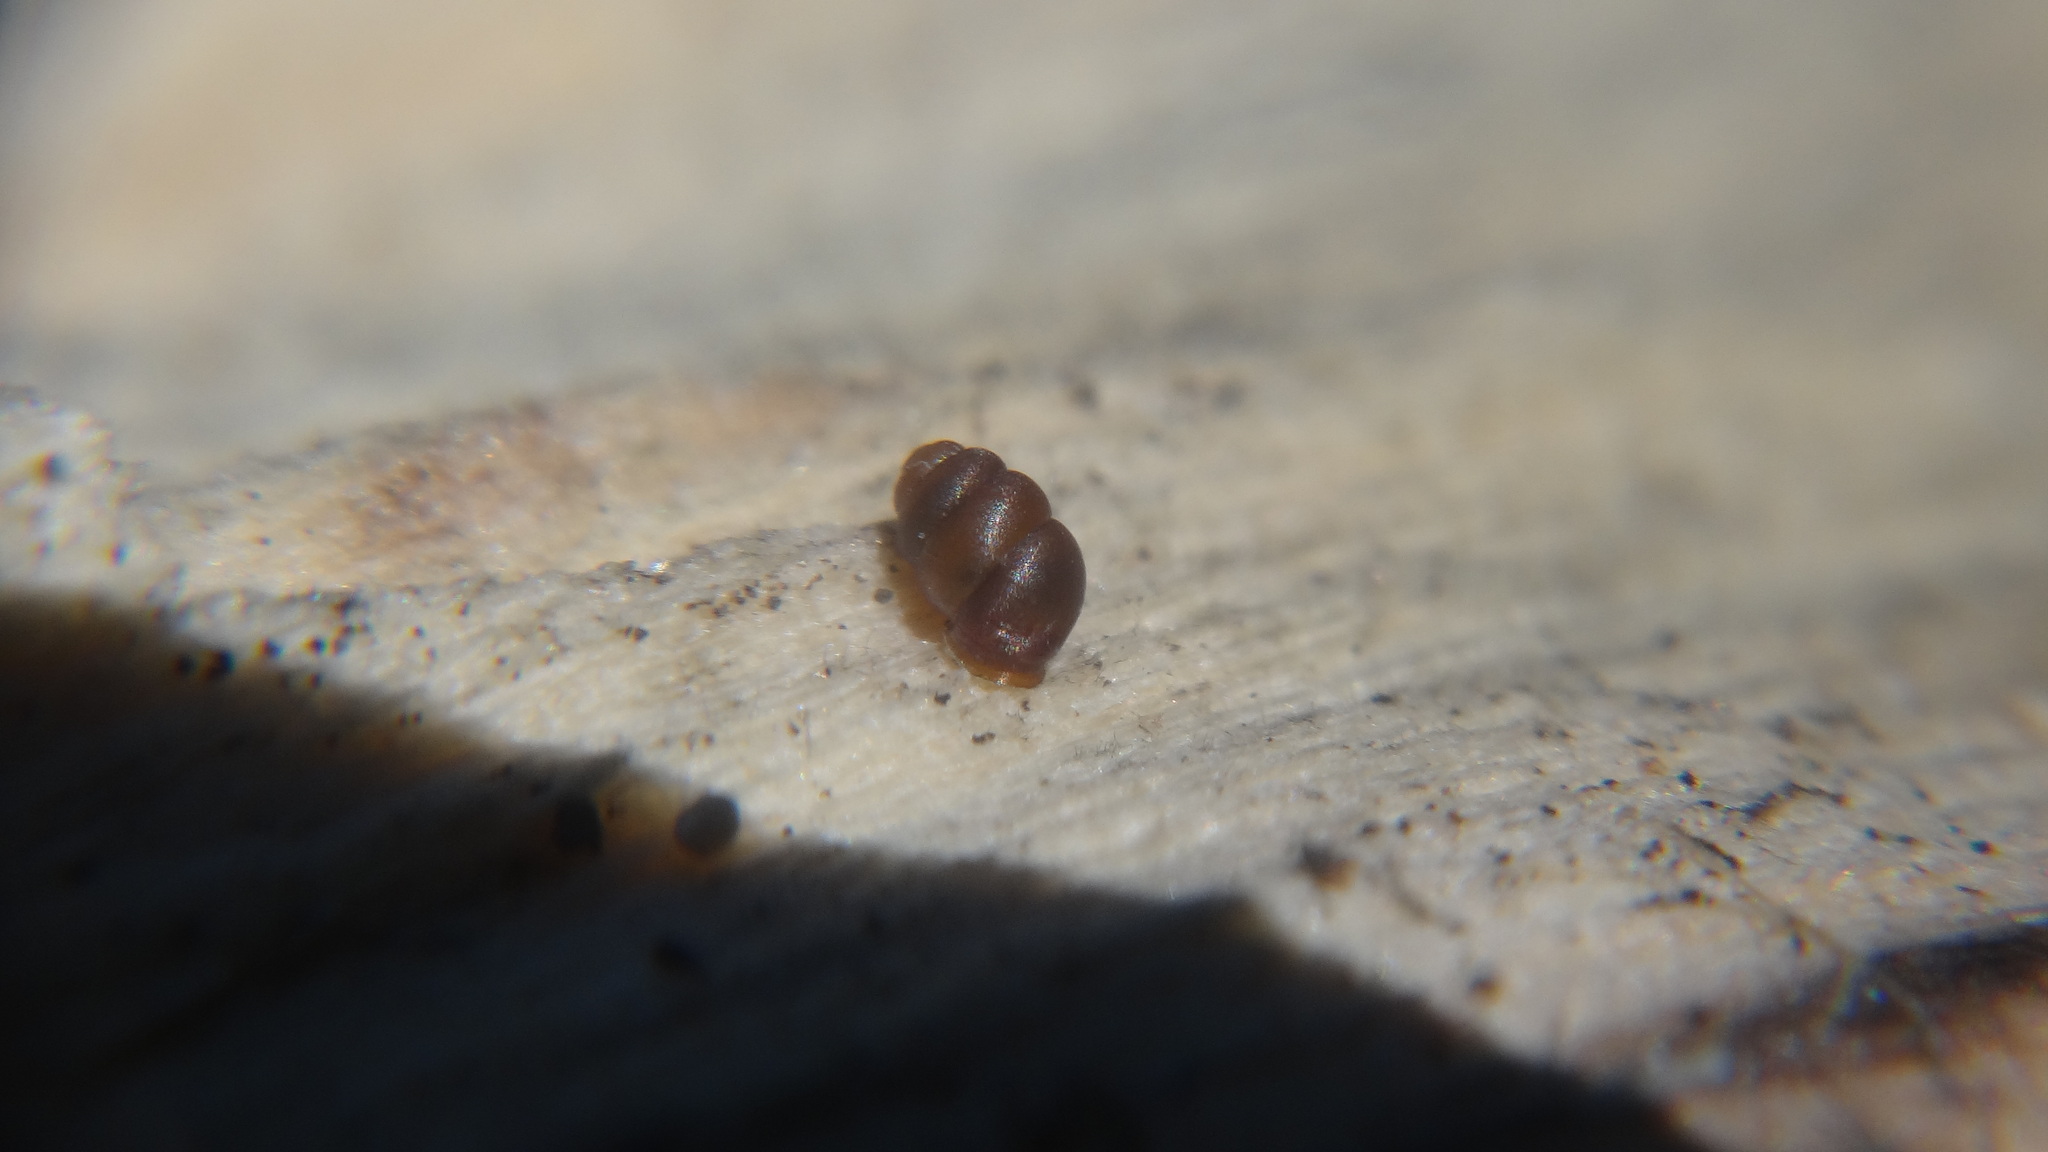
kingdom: Animalia
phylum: Mollusca
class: Gastropoda
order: Stylommatophora
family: Vertiginidae
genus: Vertigo
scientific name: Vertigo pygmaea
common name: Common whorl snail
